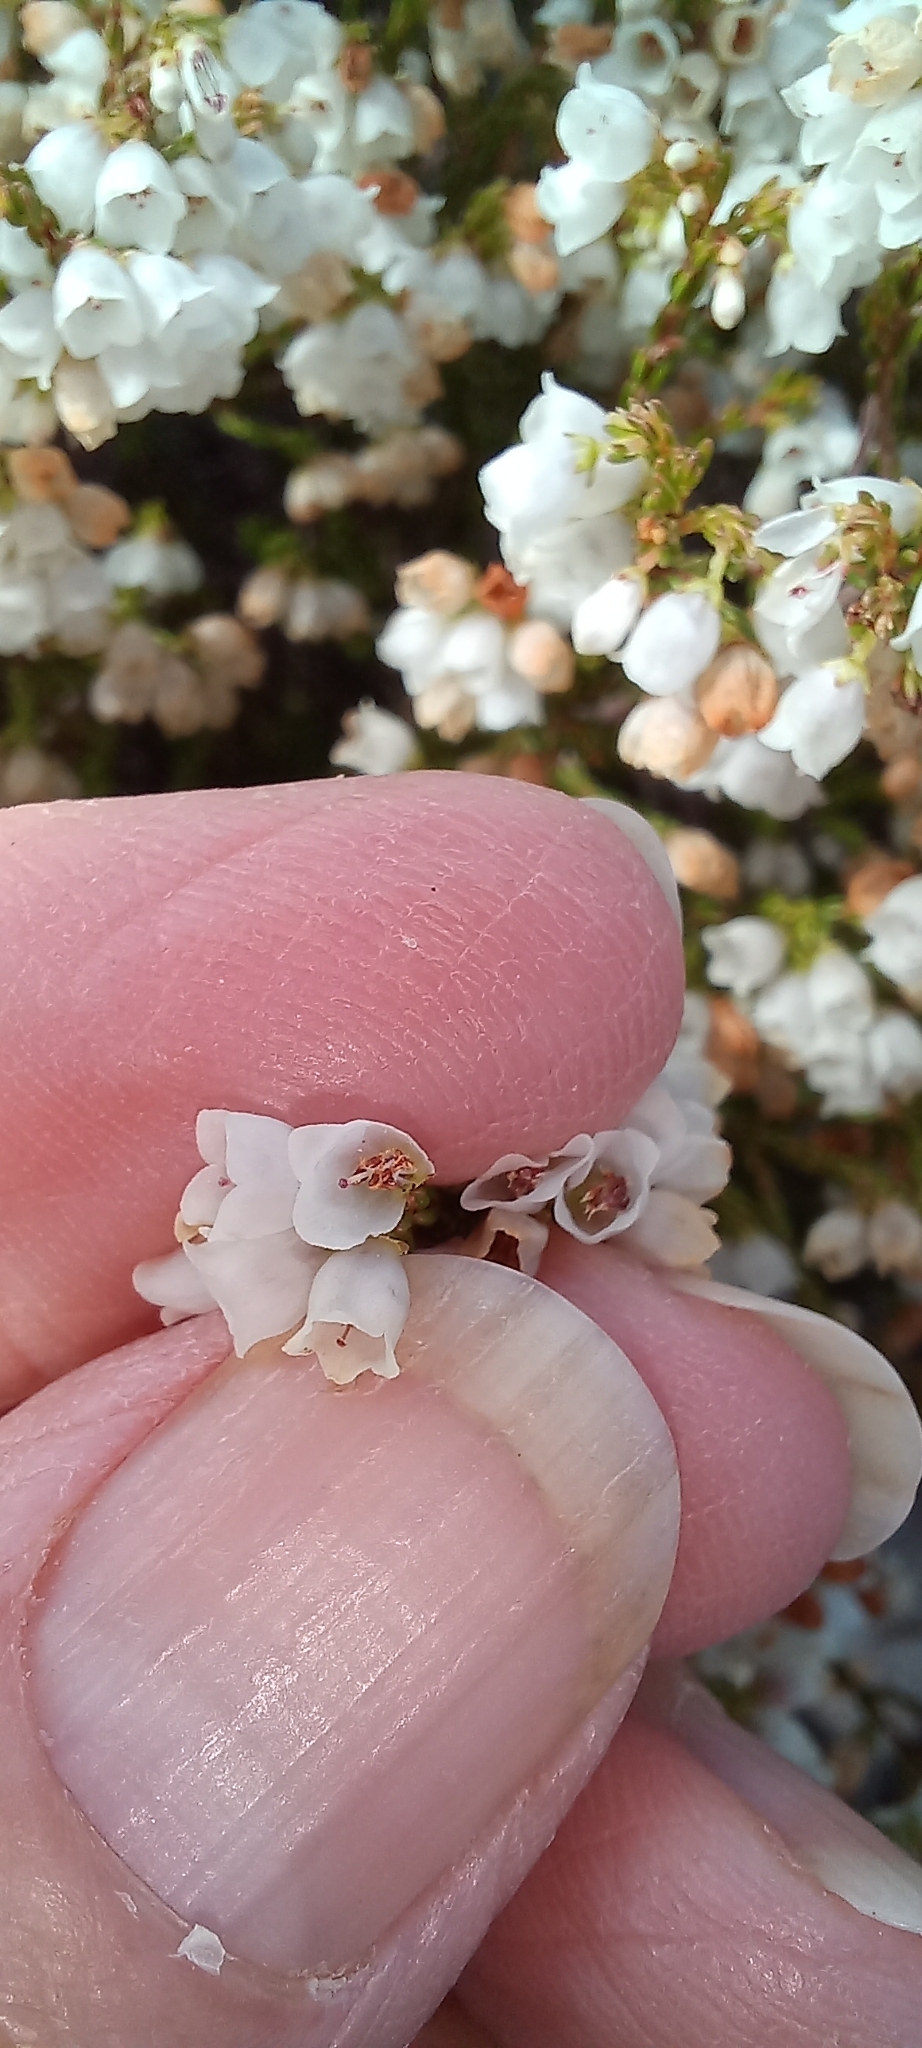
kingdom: Plantae
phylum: Tracheophyta
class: Magnoliopsida
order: Ericales
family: Ericaceae
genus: Erica
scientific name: Erica subdivaricata
